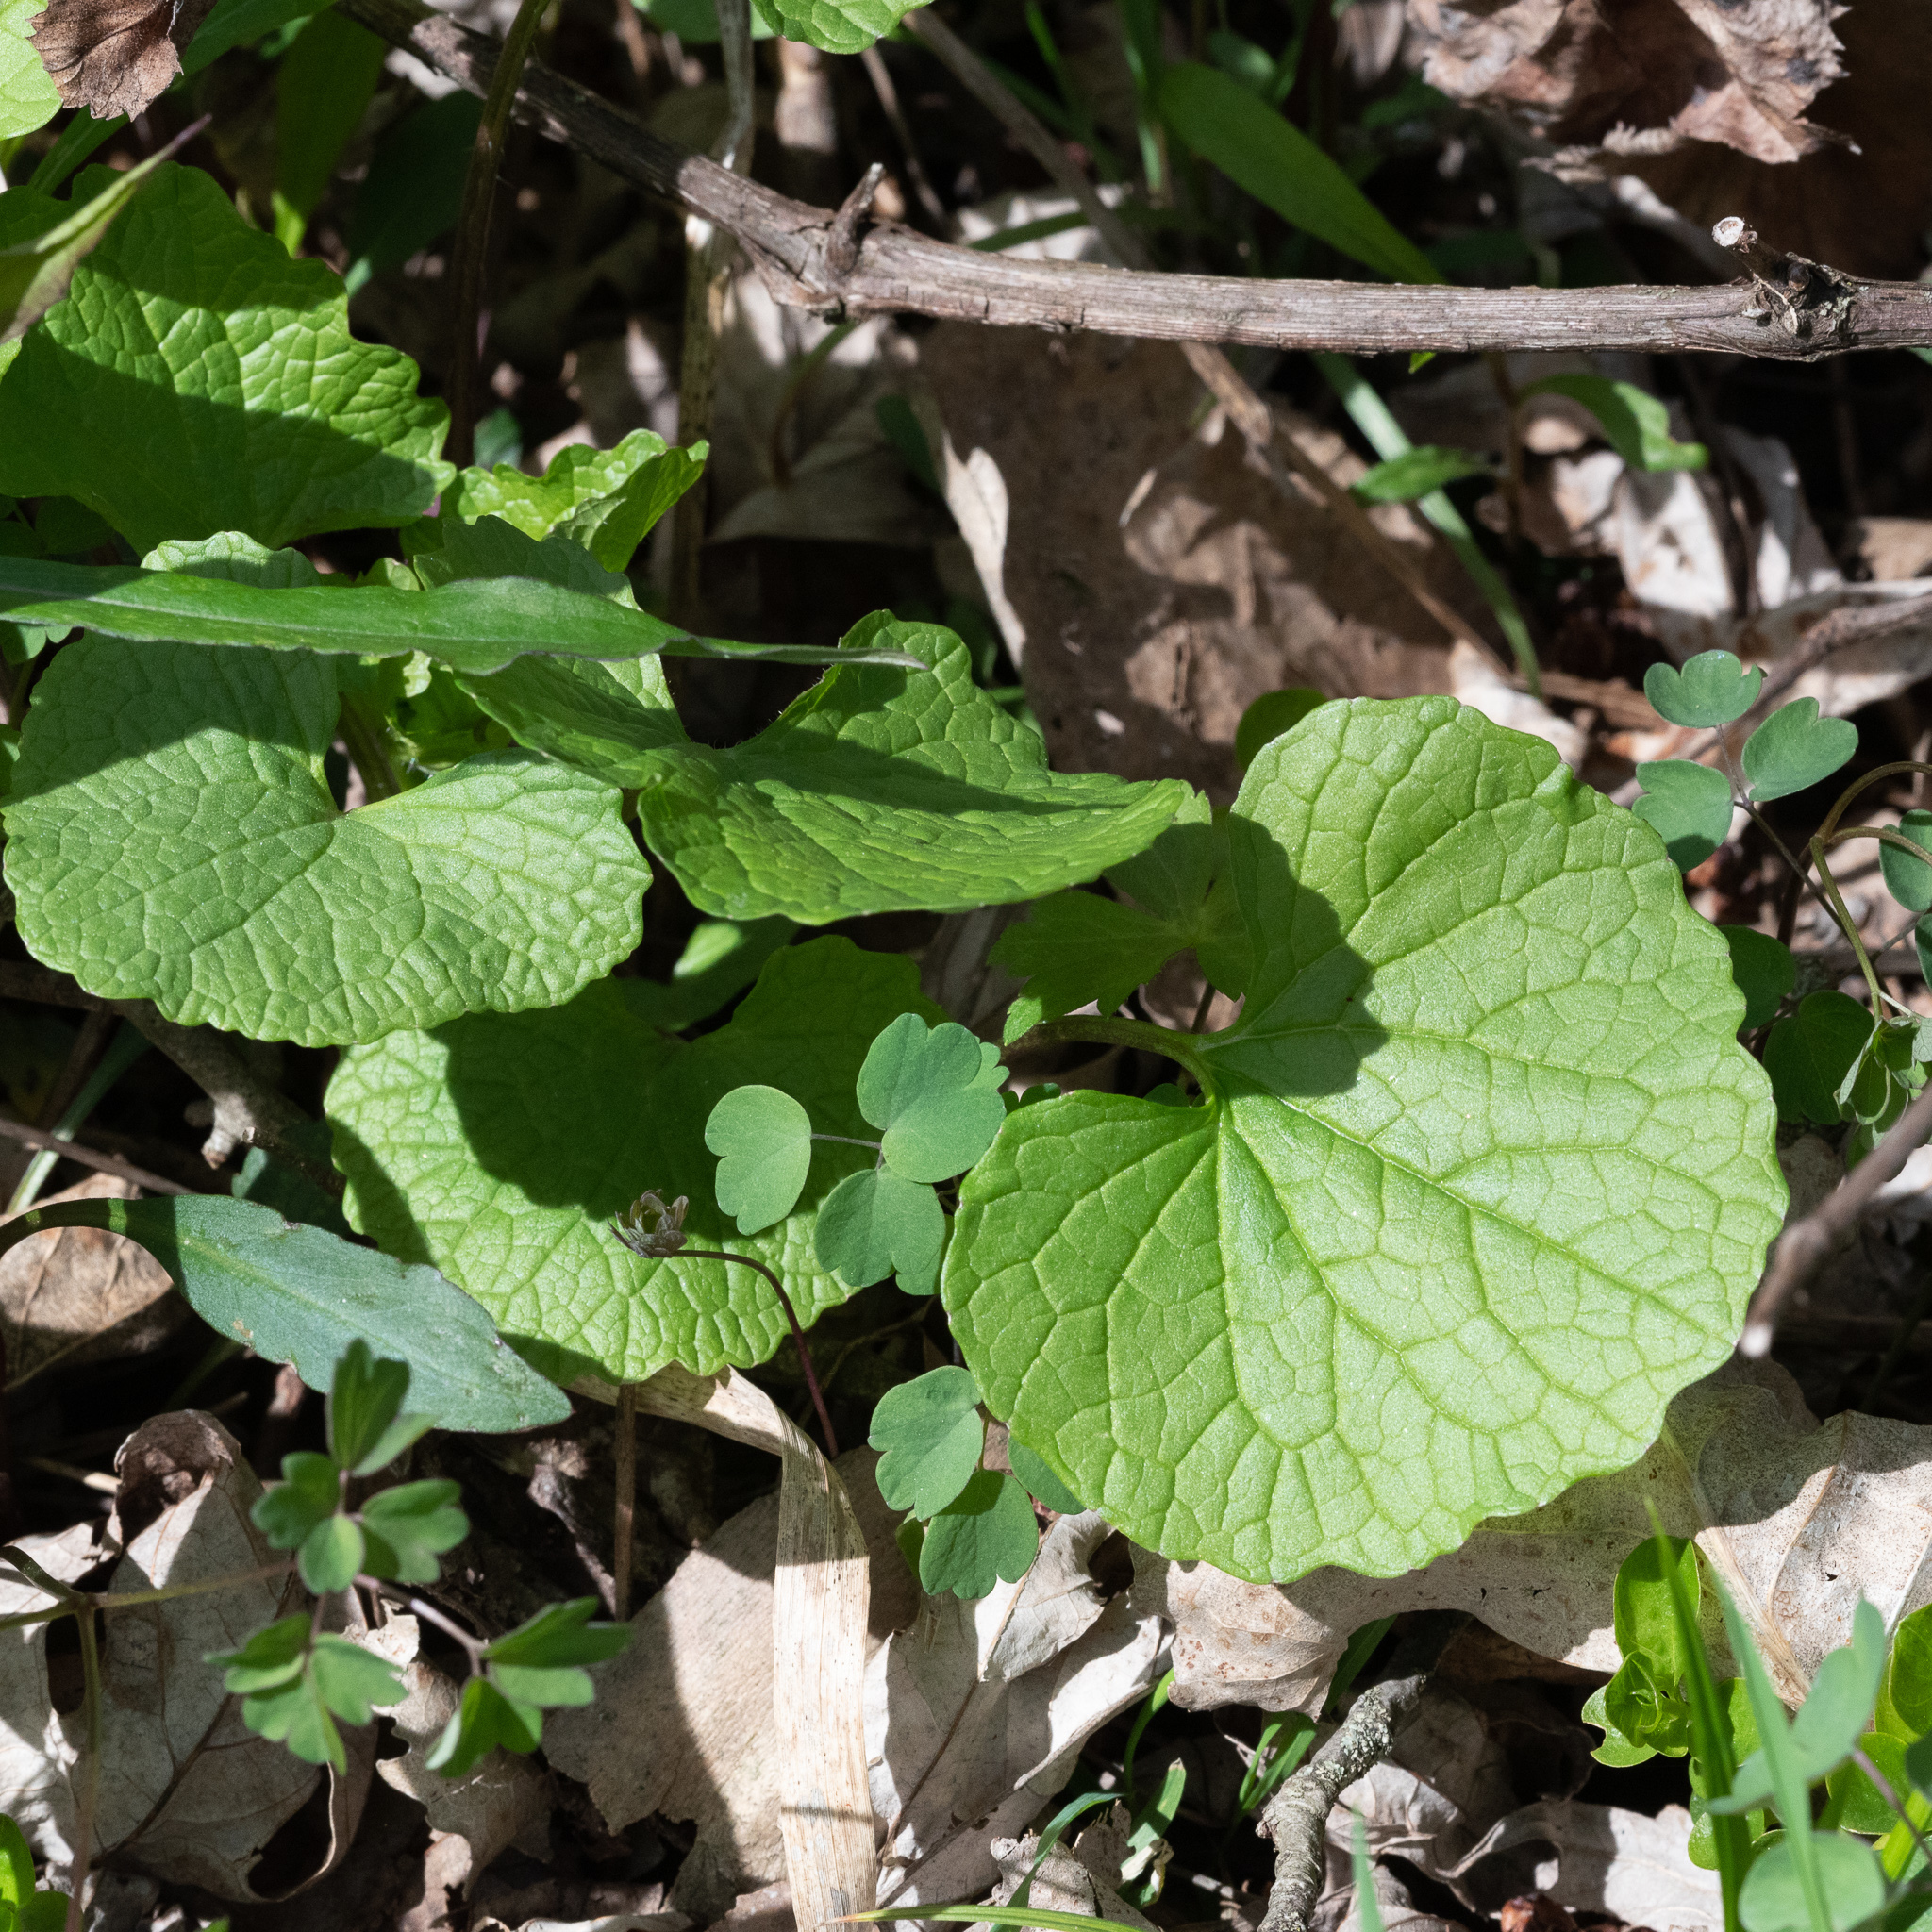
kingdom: Plantae
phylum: Tracheophyta
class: Magnoliopsida
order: Brassicales
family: Brassicaceae
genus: Alliaria
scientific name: Alliaria petiolata
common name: Garlic mustard
